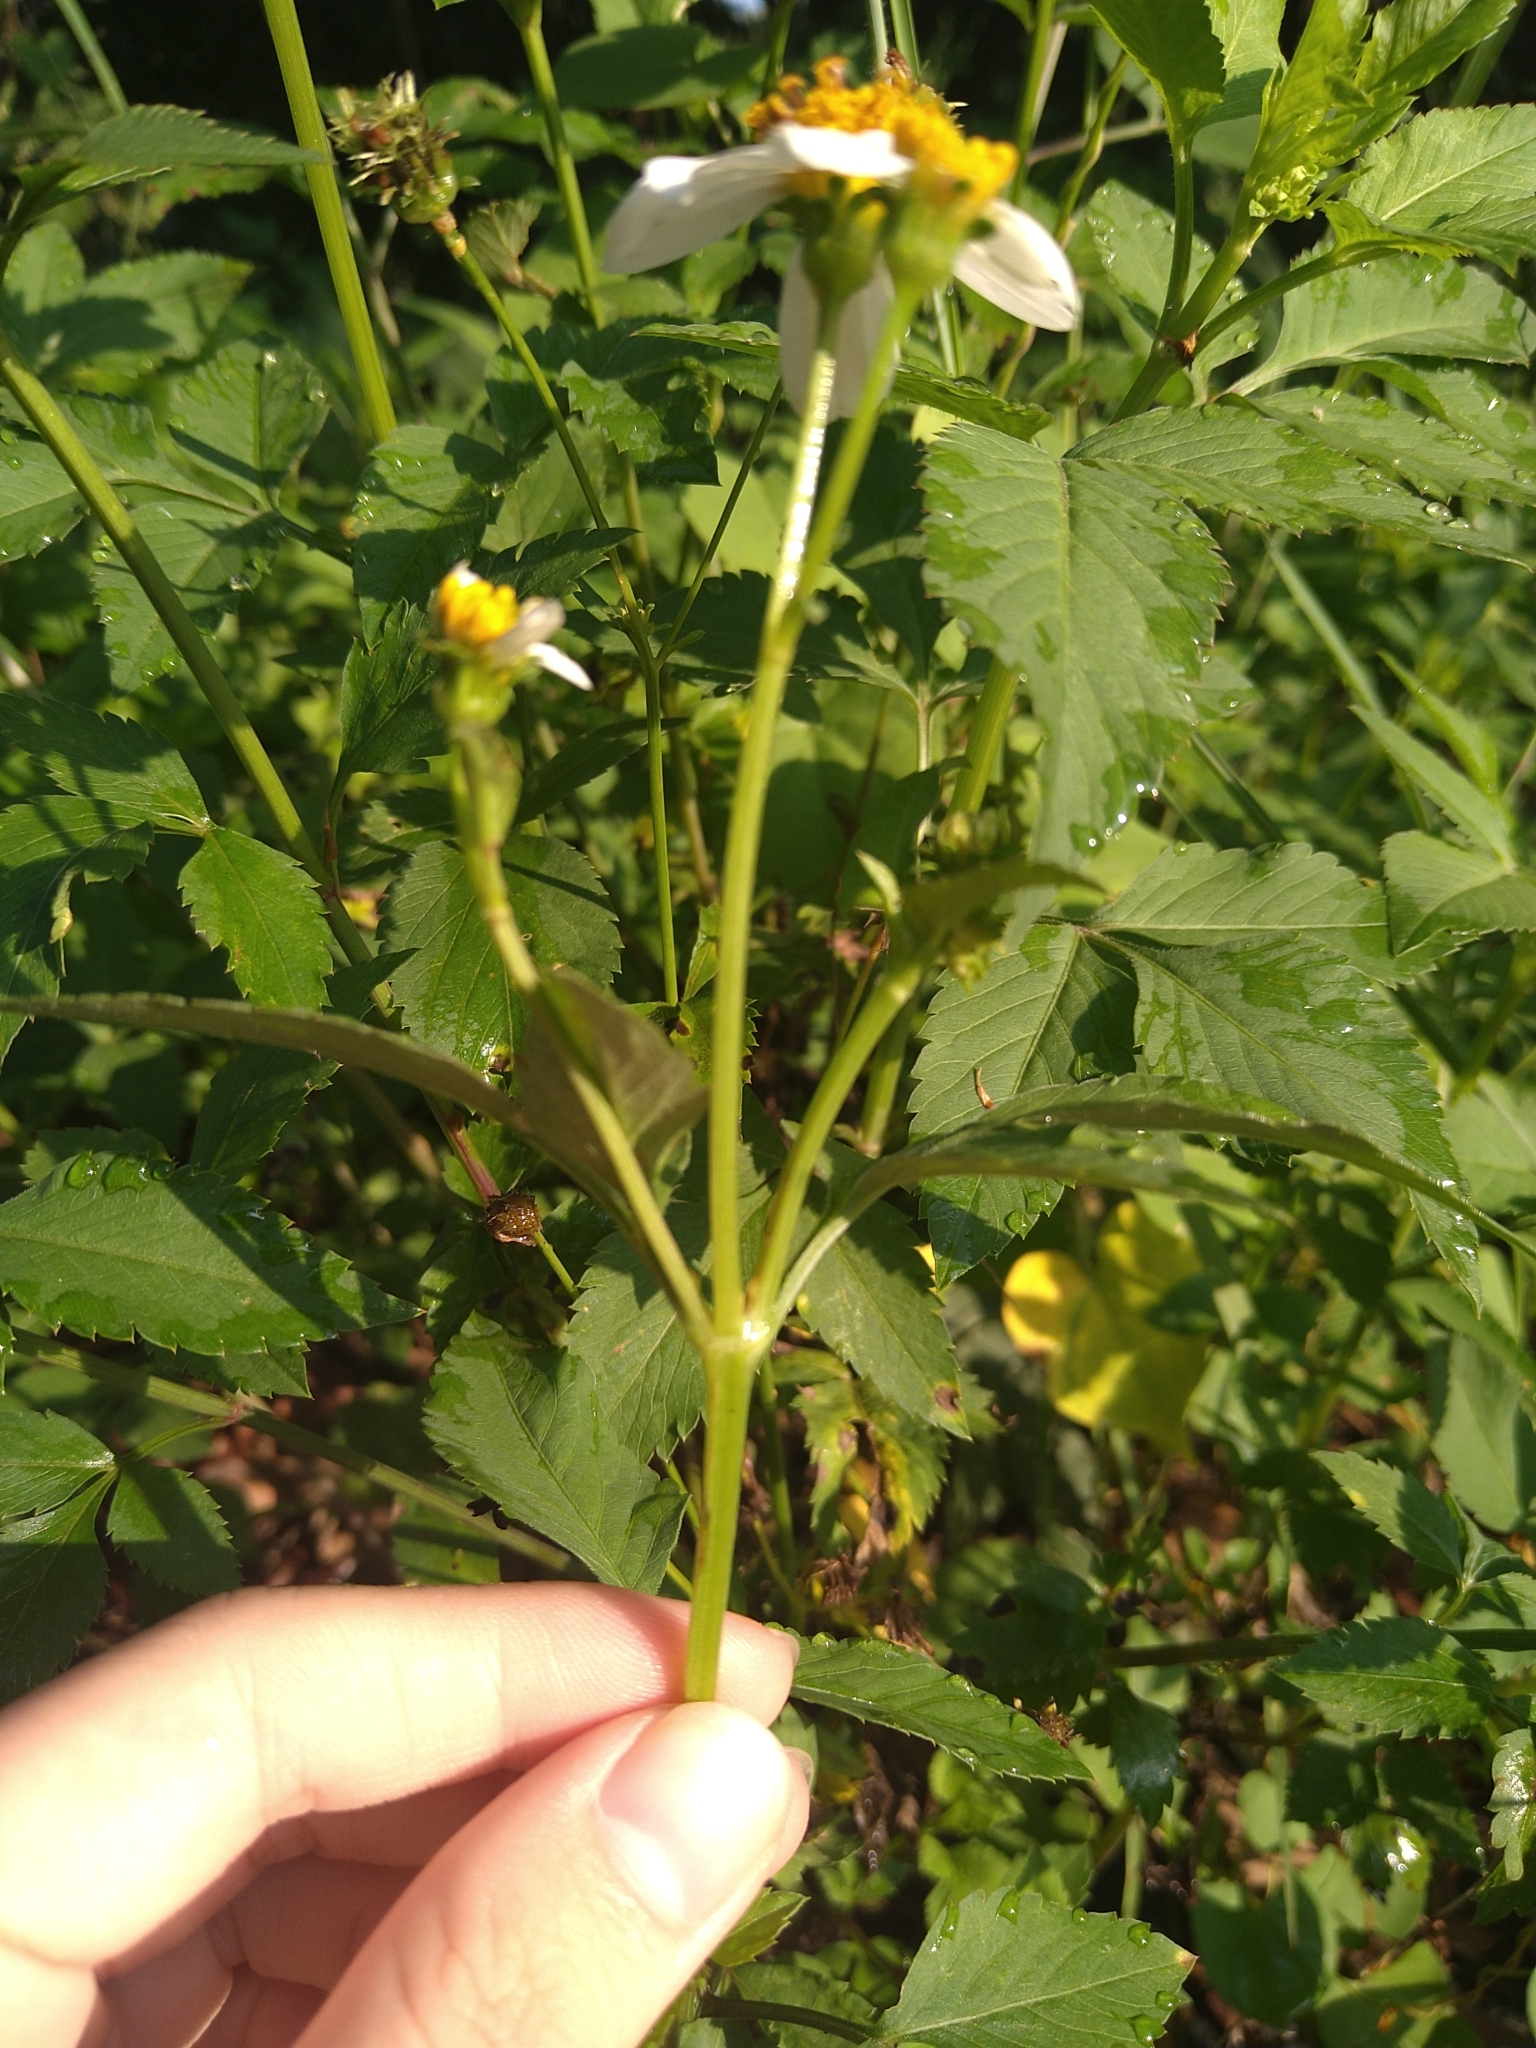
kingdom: Plantae
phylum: Tracheophyta
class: Magnoliopsida
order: Asterales
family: Asteraceae
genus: Bidens
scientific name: Bidens alba
